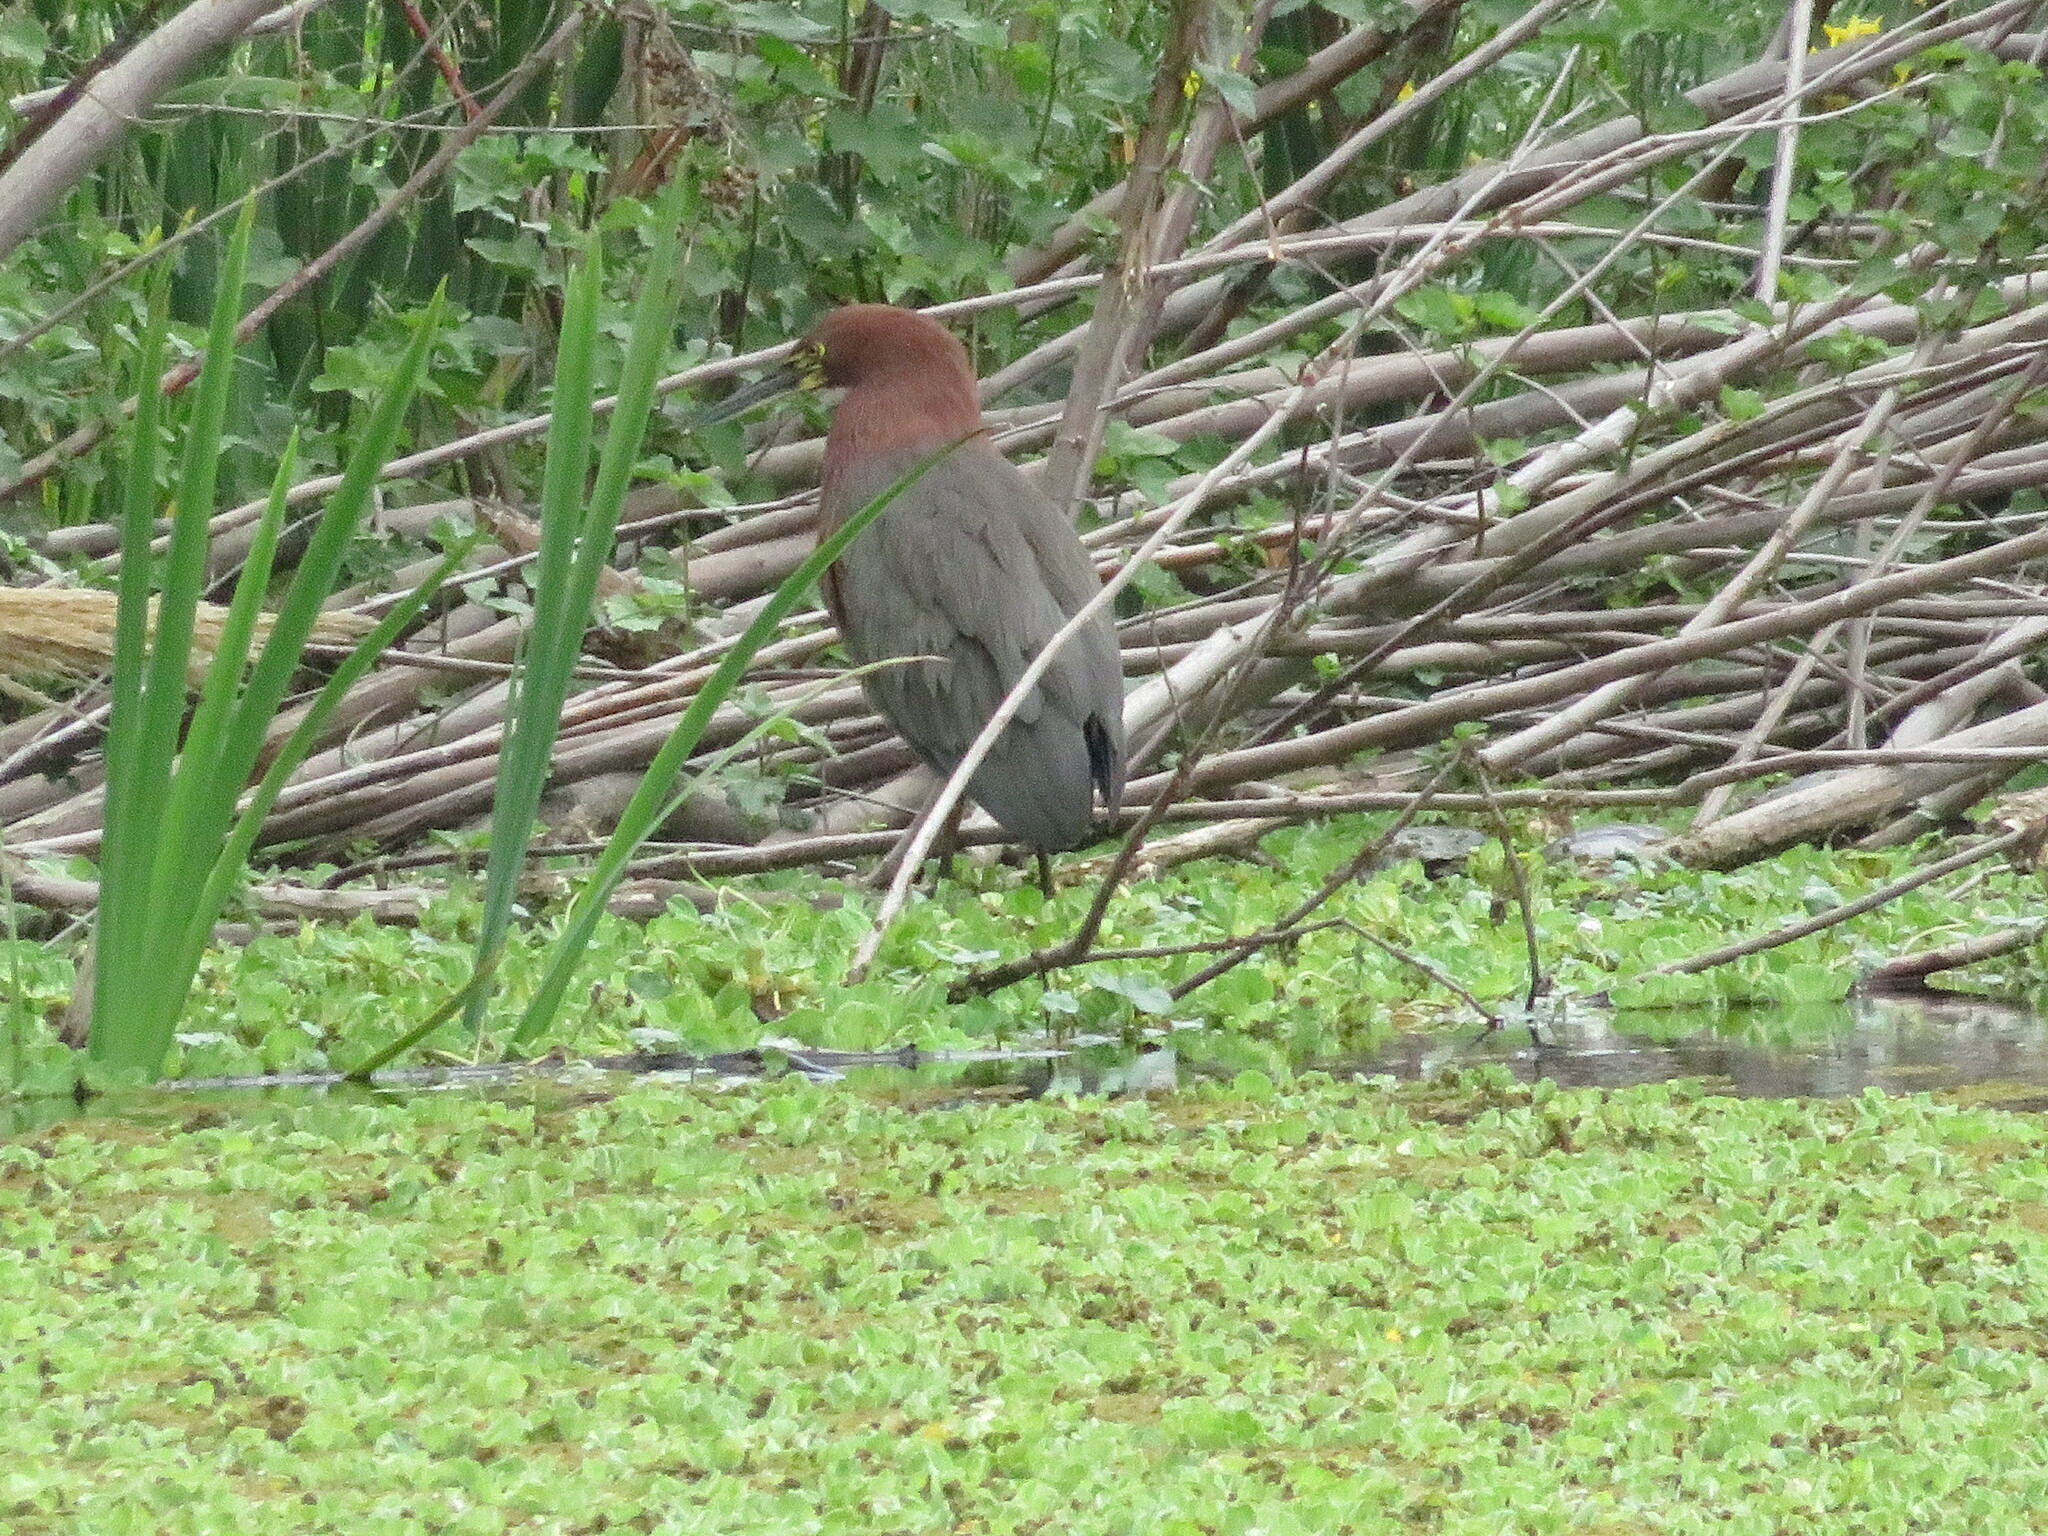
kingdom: Animalia
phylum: Chordata
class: Aves
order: Pelecaniformes
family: Ardeidae
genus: Tigrisoma
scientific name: Tigrisoma lineatum
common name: Rufescent tiger-heron
